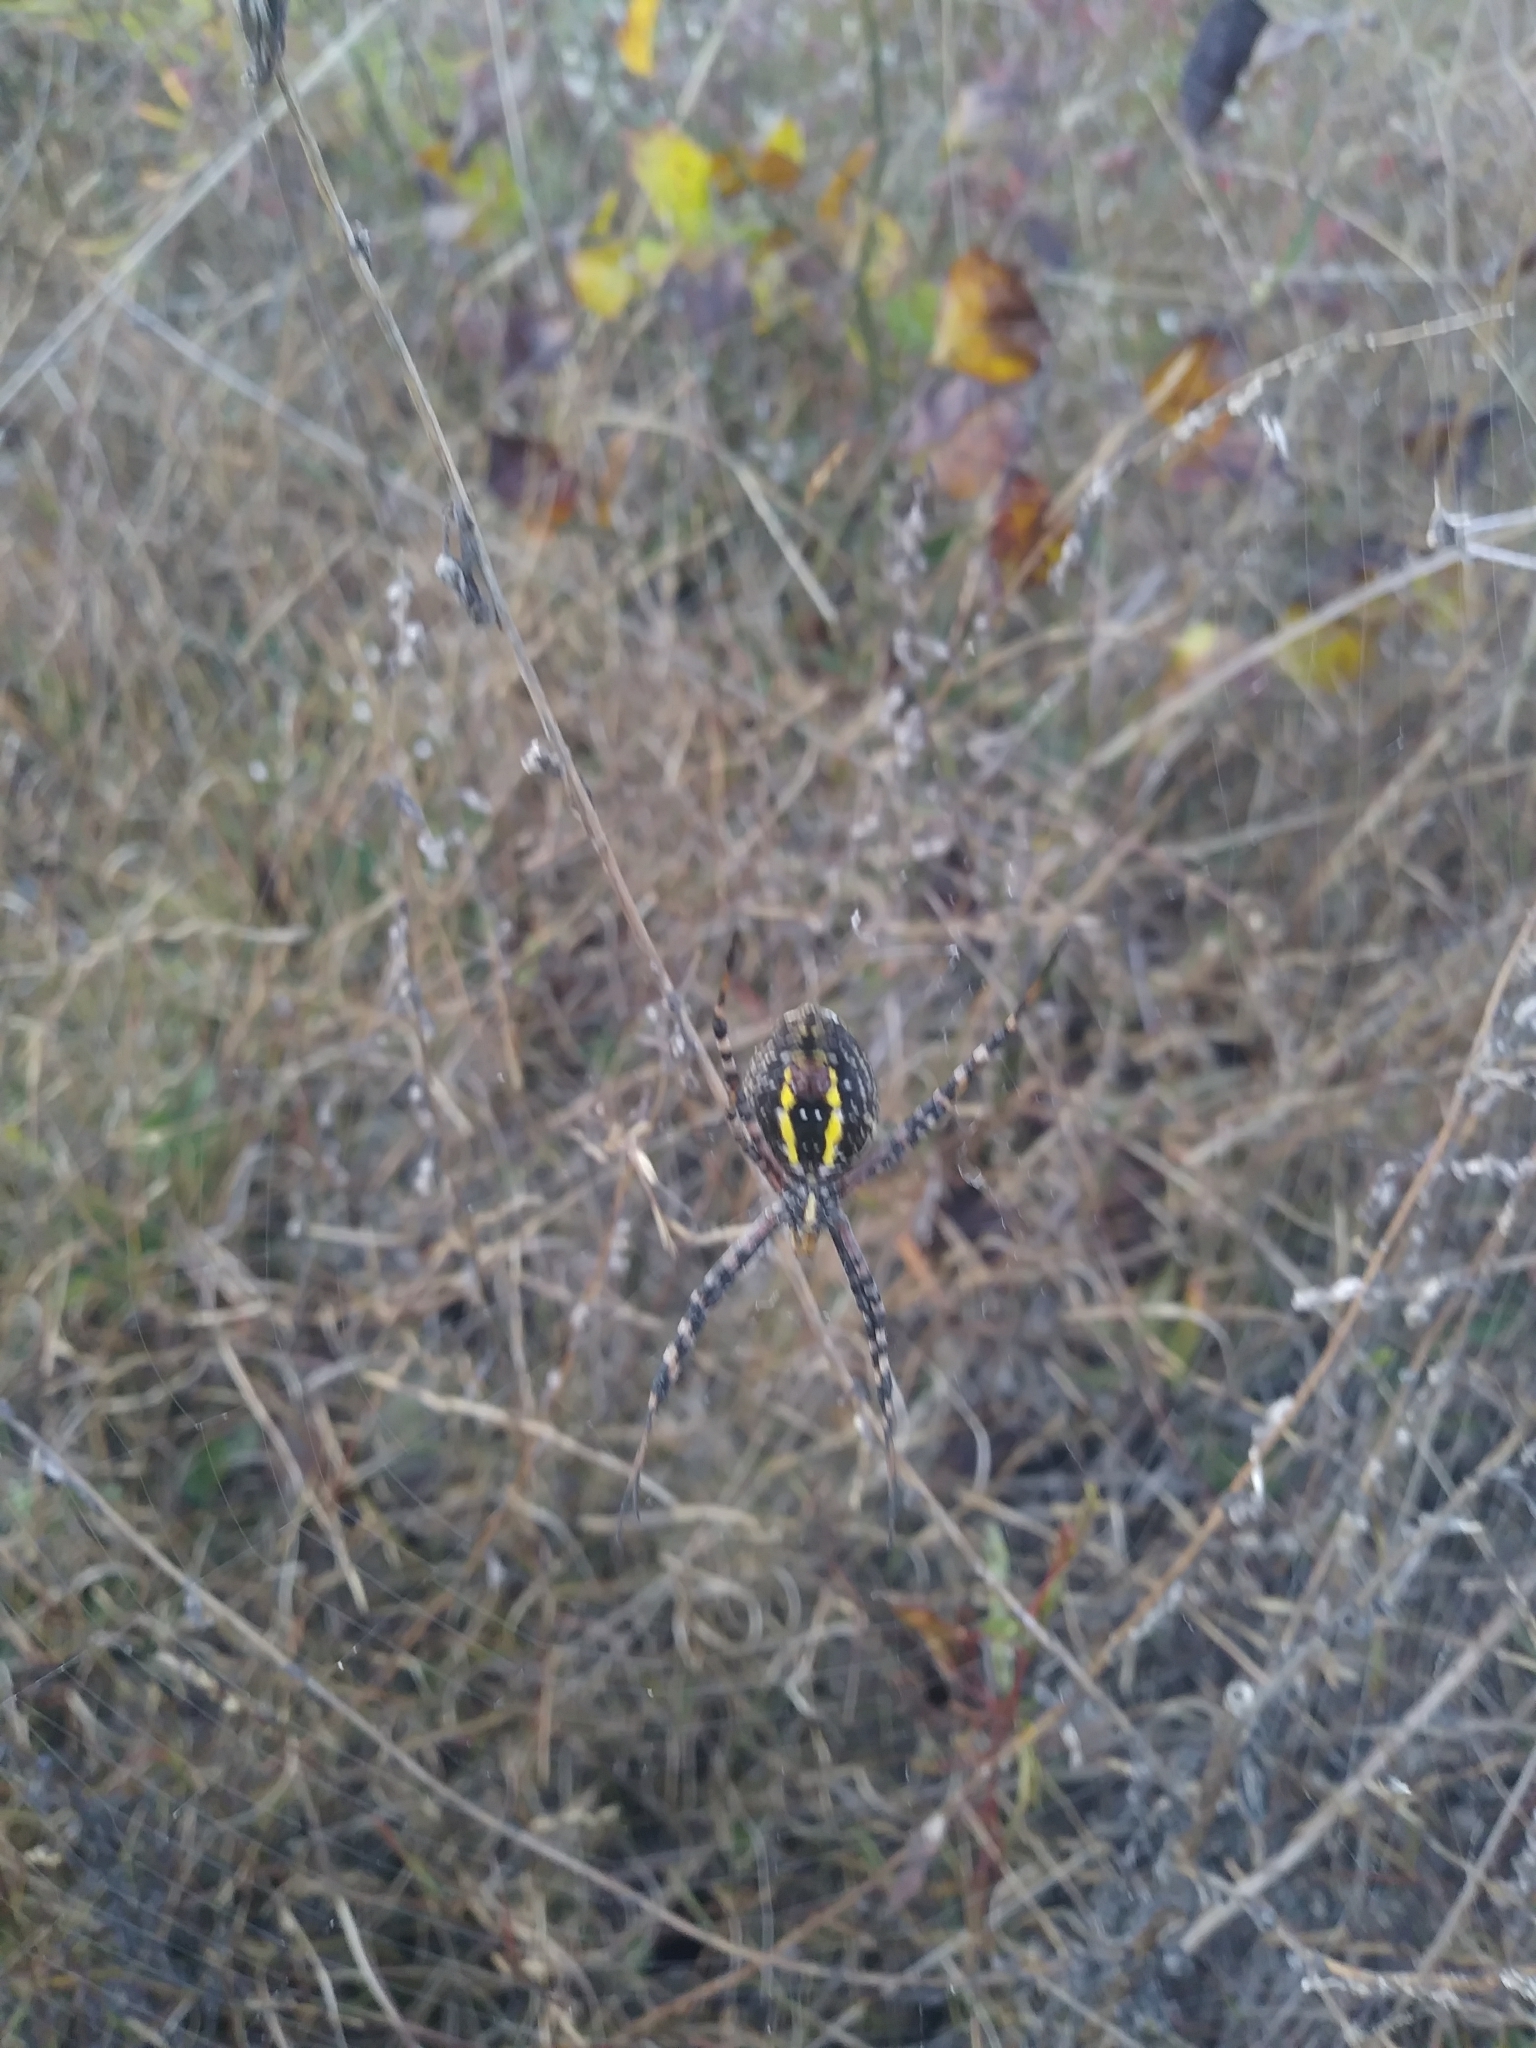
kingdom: Animalia
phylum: Arthropoda
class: Arachnida
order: Araneae
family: Araneidae
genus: Argiope
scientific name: Argiope trifasciata
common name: Banded garden spider
